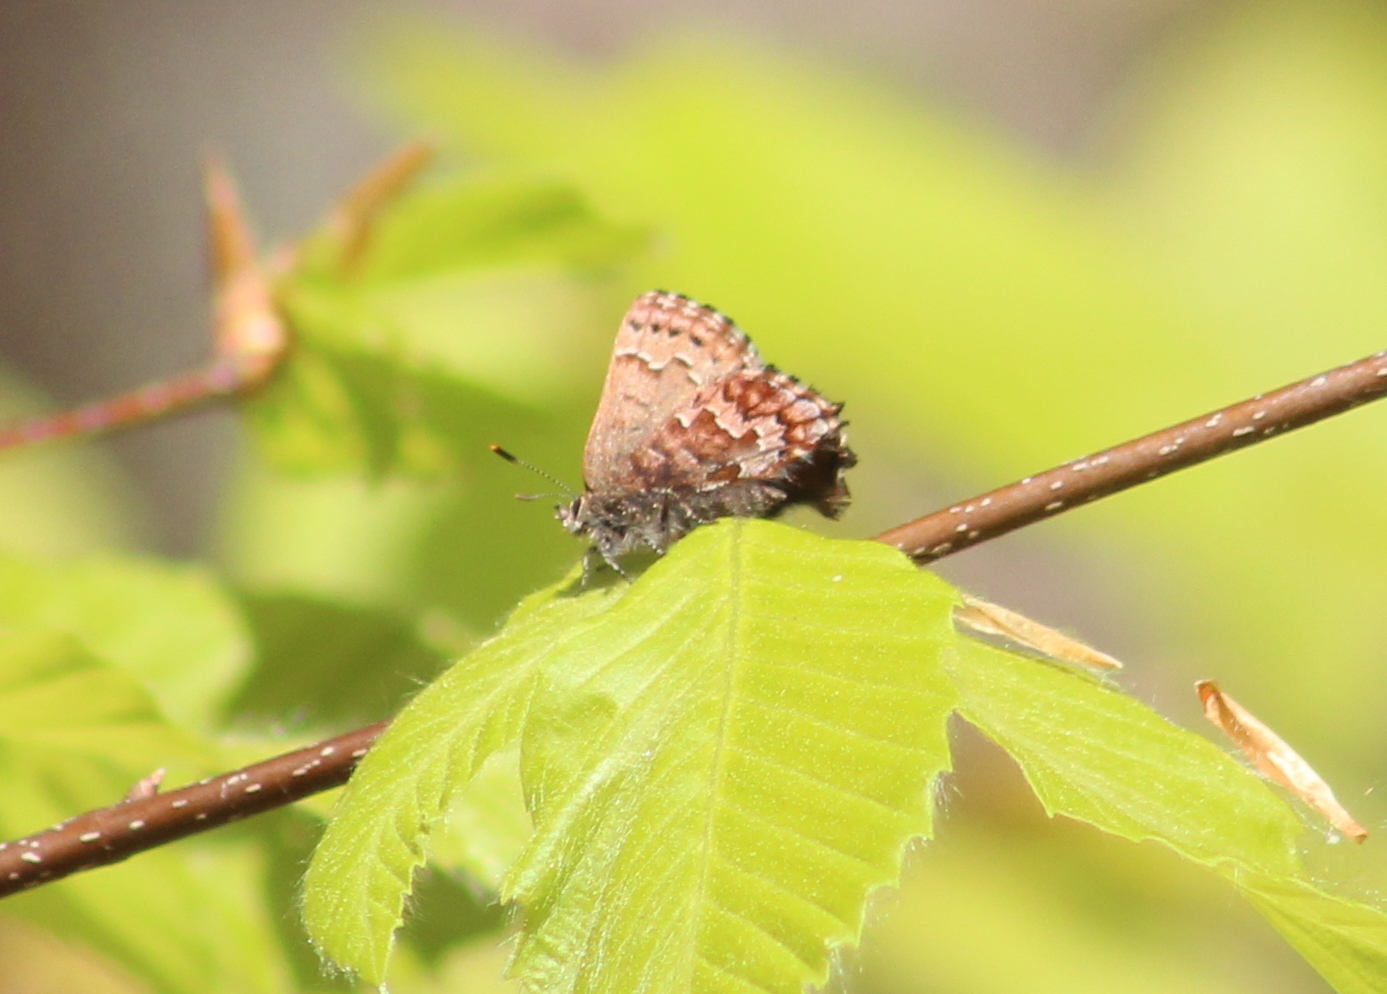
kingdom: Animalia
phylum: Arthropoda
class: Insecta
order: Lepidoptera
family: Lycaenidae
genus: Incisalia
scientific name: Incisalia niphon
